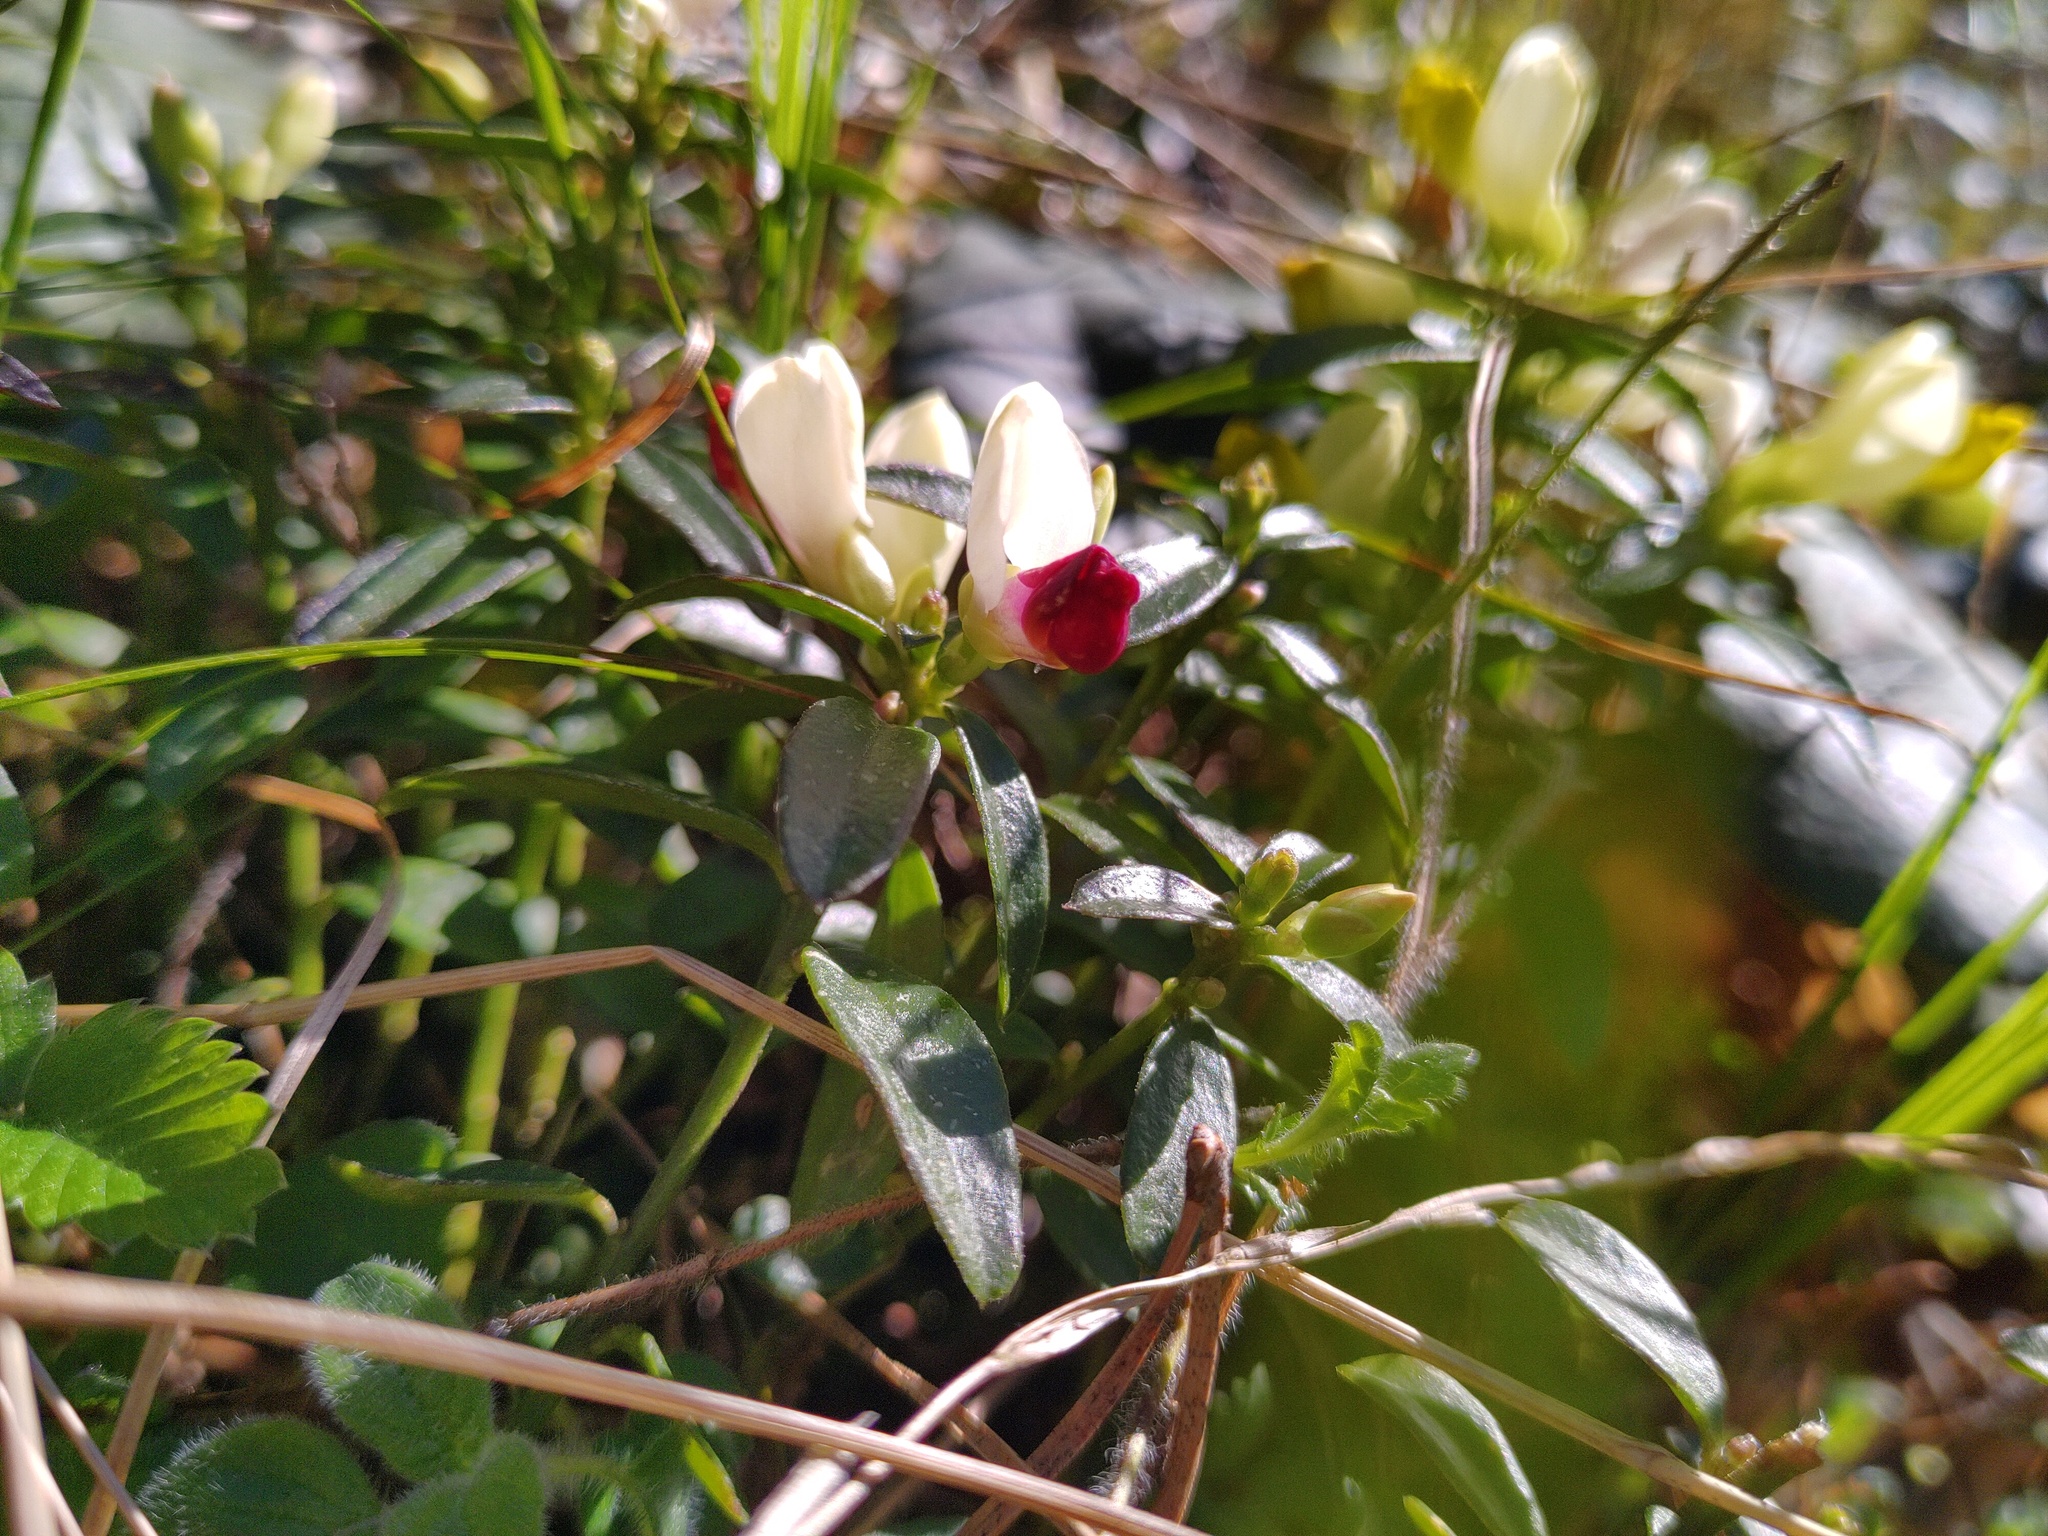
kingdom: Plantae
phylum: Tracheophyta
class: Magnoliopsida
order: Fabales
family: Polygalaceae
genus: Polygaloides
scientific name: Polygaloides chamaebuxus
